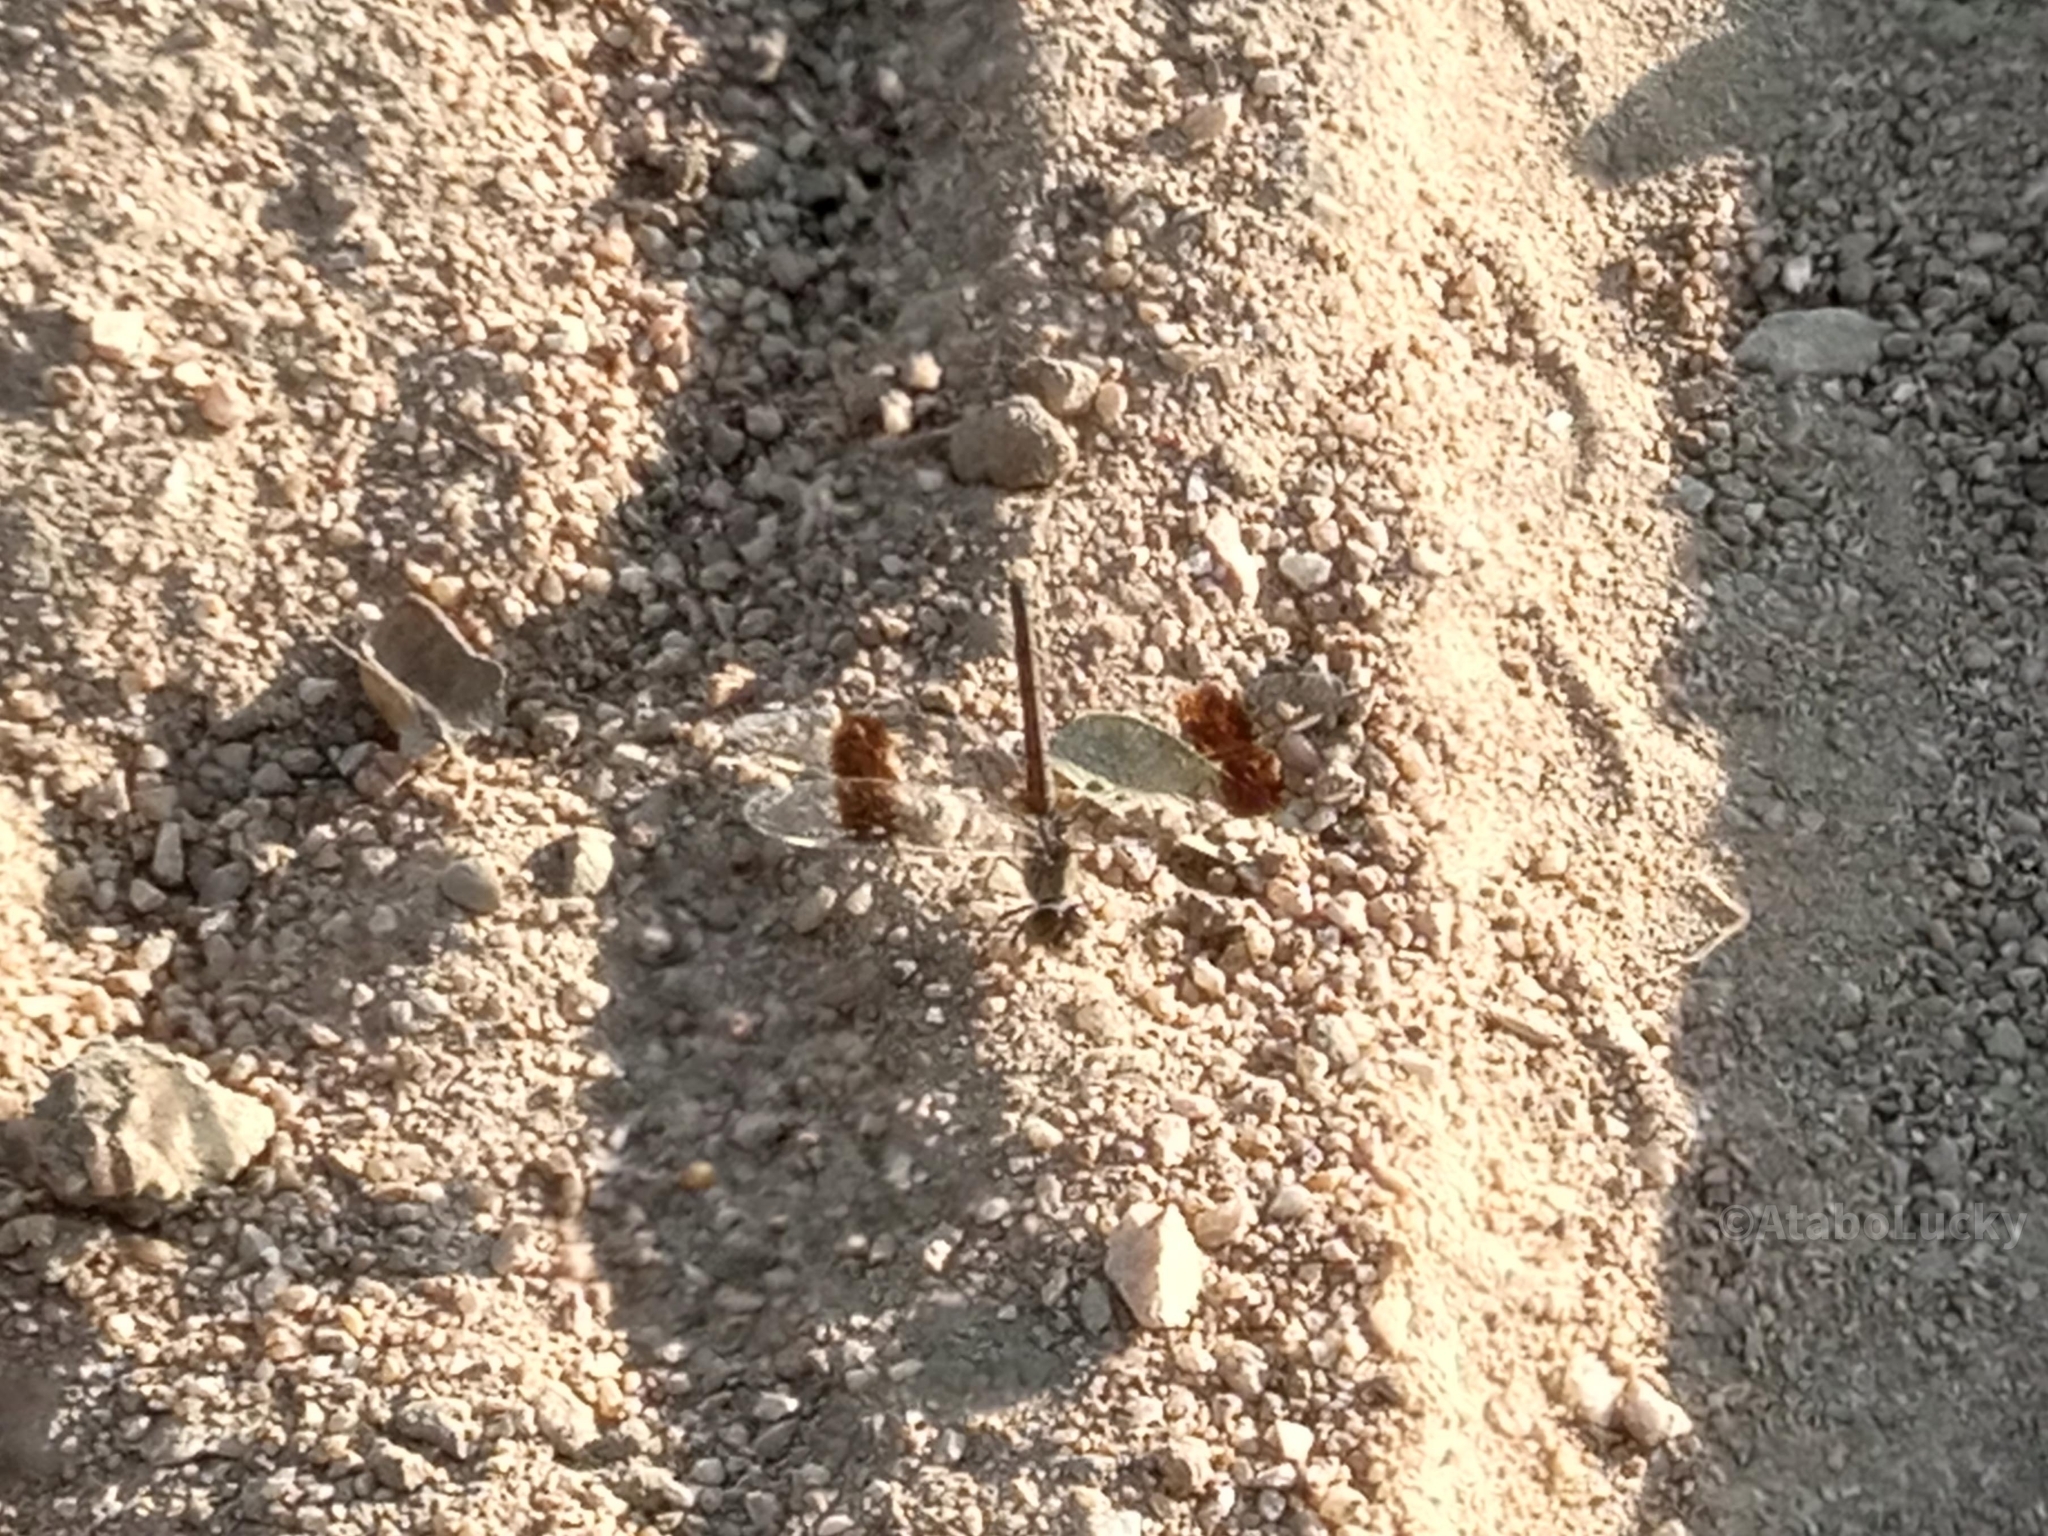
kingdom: Animalia
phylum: Arthropoda
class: Insecta
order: Odonata
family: Libellulidae
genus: Brachythemis
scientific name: Brachythemis impartita
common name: Banded groundling
